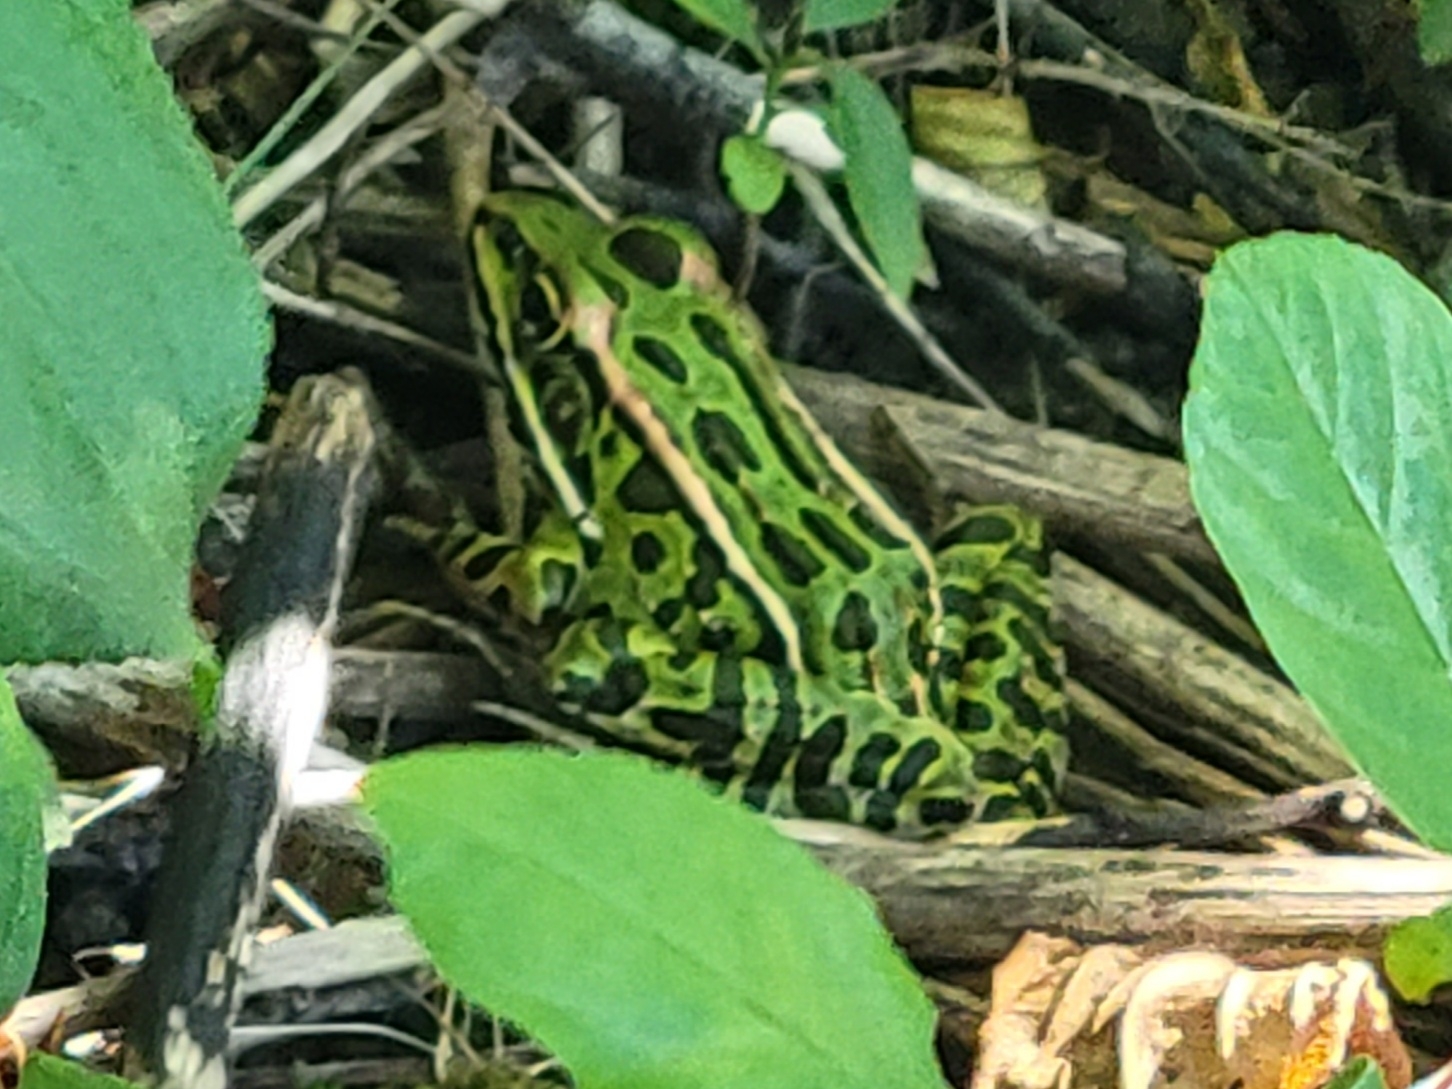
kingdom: Animalia
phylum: Chordata
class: Amphibia
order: Anura
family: Ranidae
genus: Lithobates
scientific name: Lithobates pipiens
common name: Northern leopard frog
